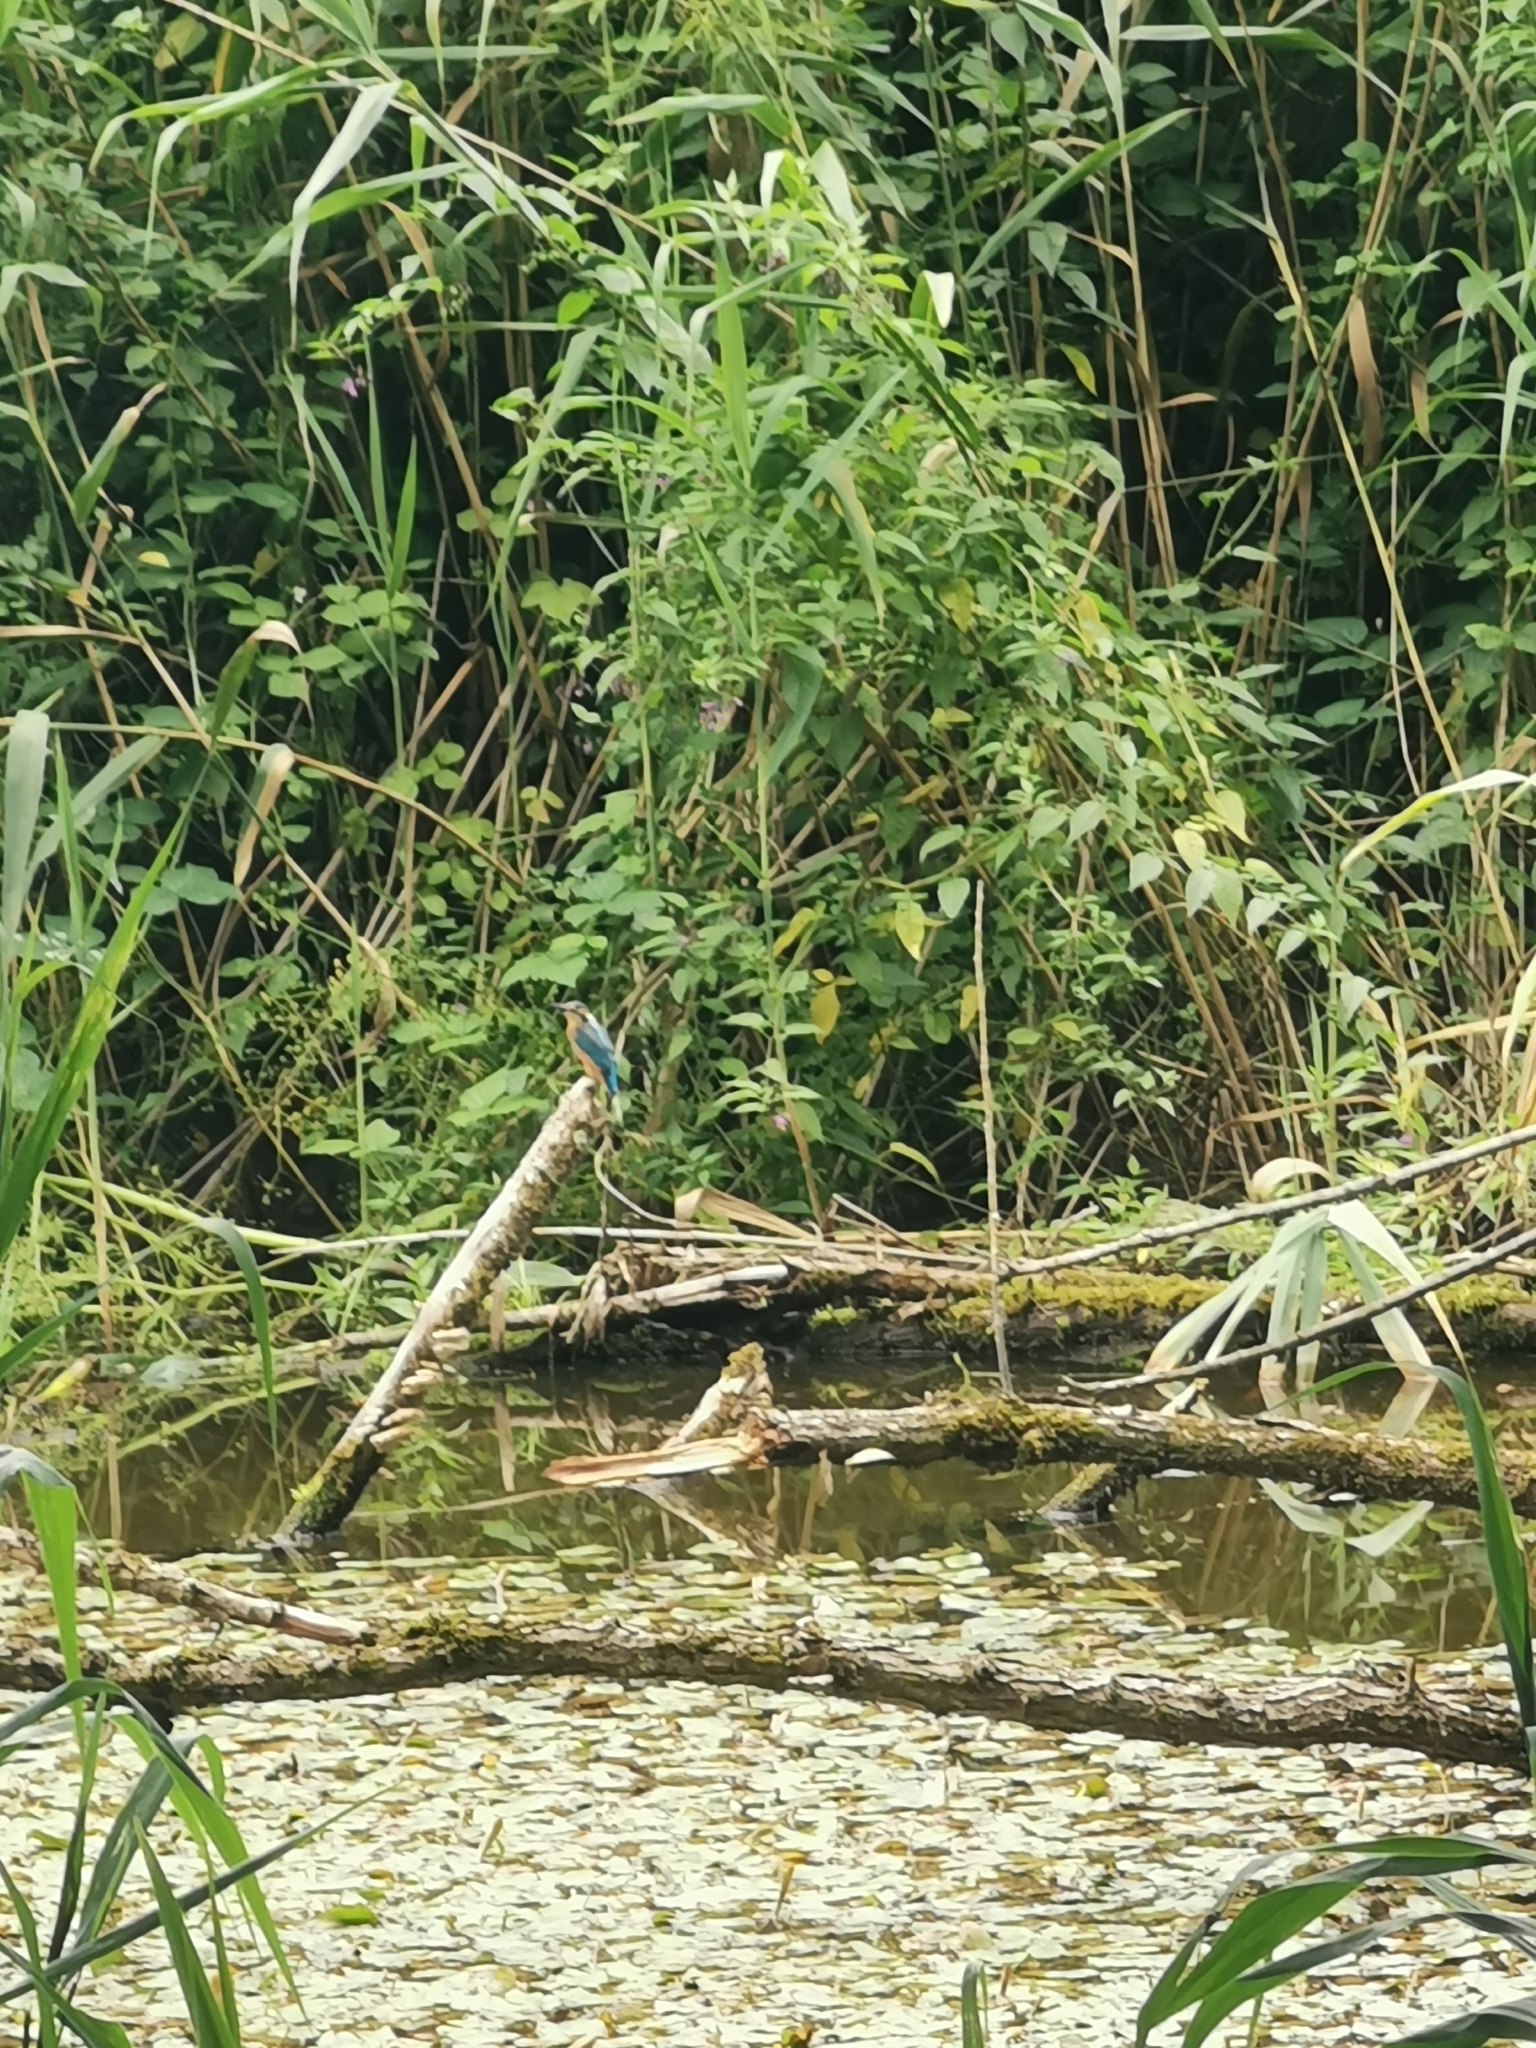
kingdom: Animalia
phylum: Chordata
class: Aves
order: Coraciiformes
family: Alcedinidae
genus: Alcedo
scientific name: Alcedo atthis
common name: Common kingfisher
